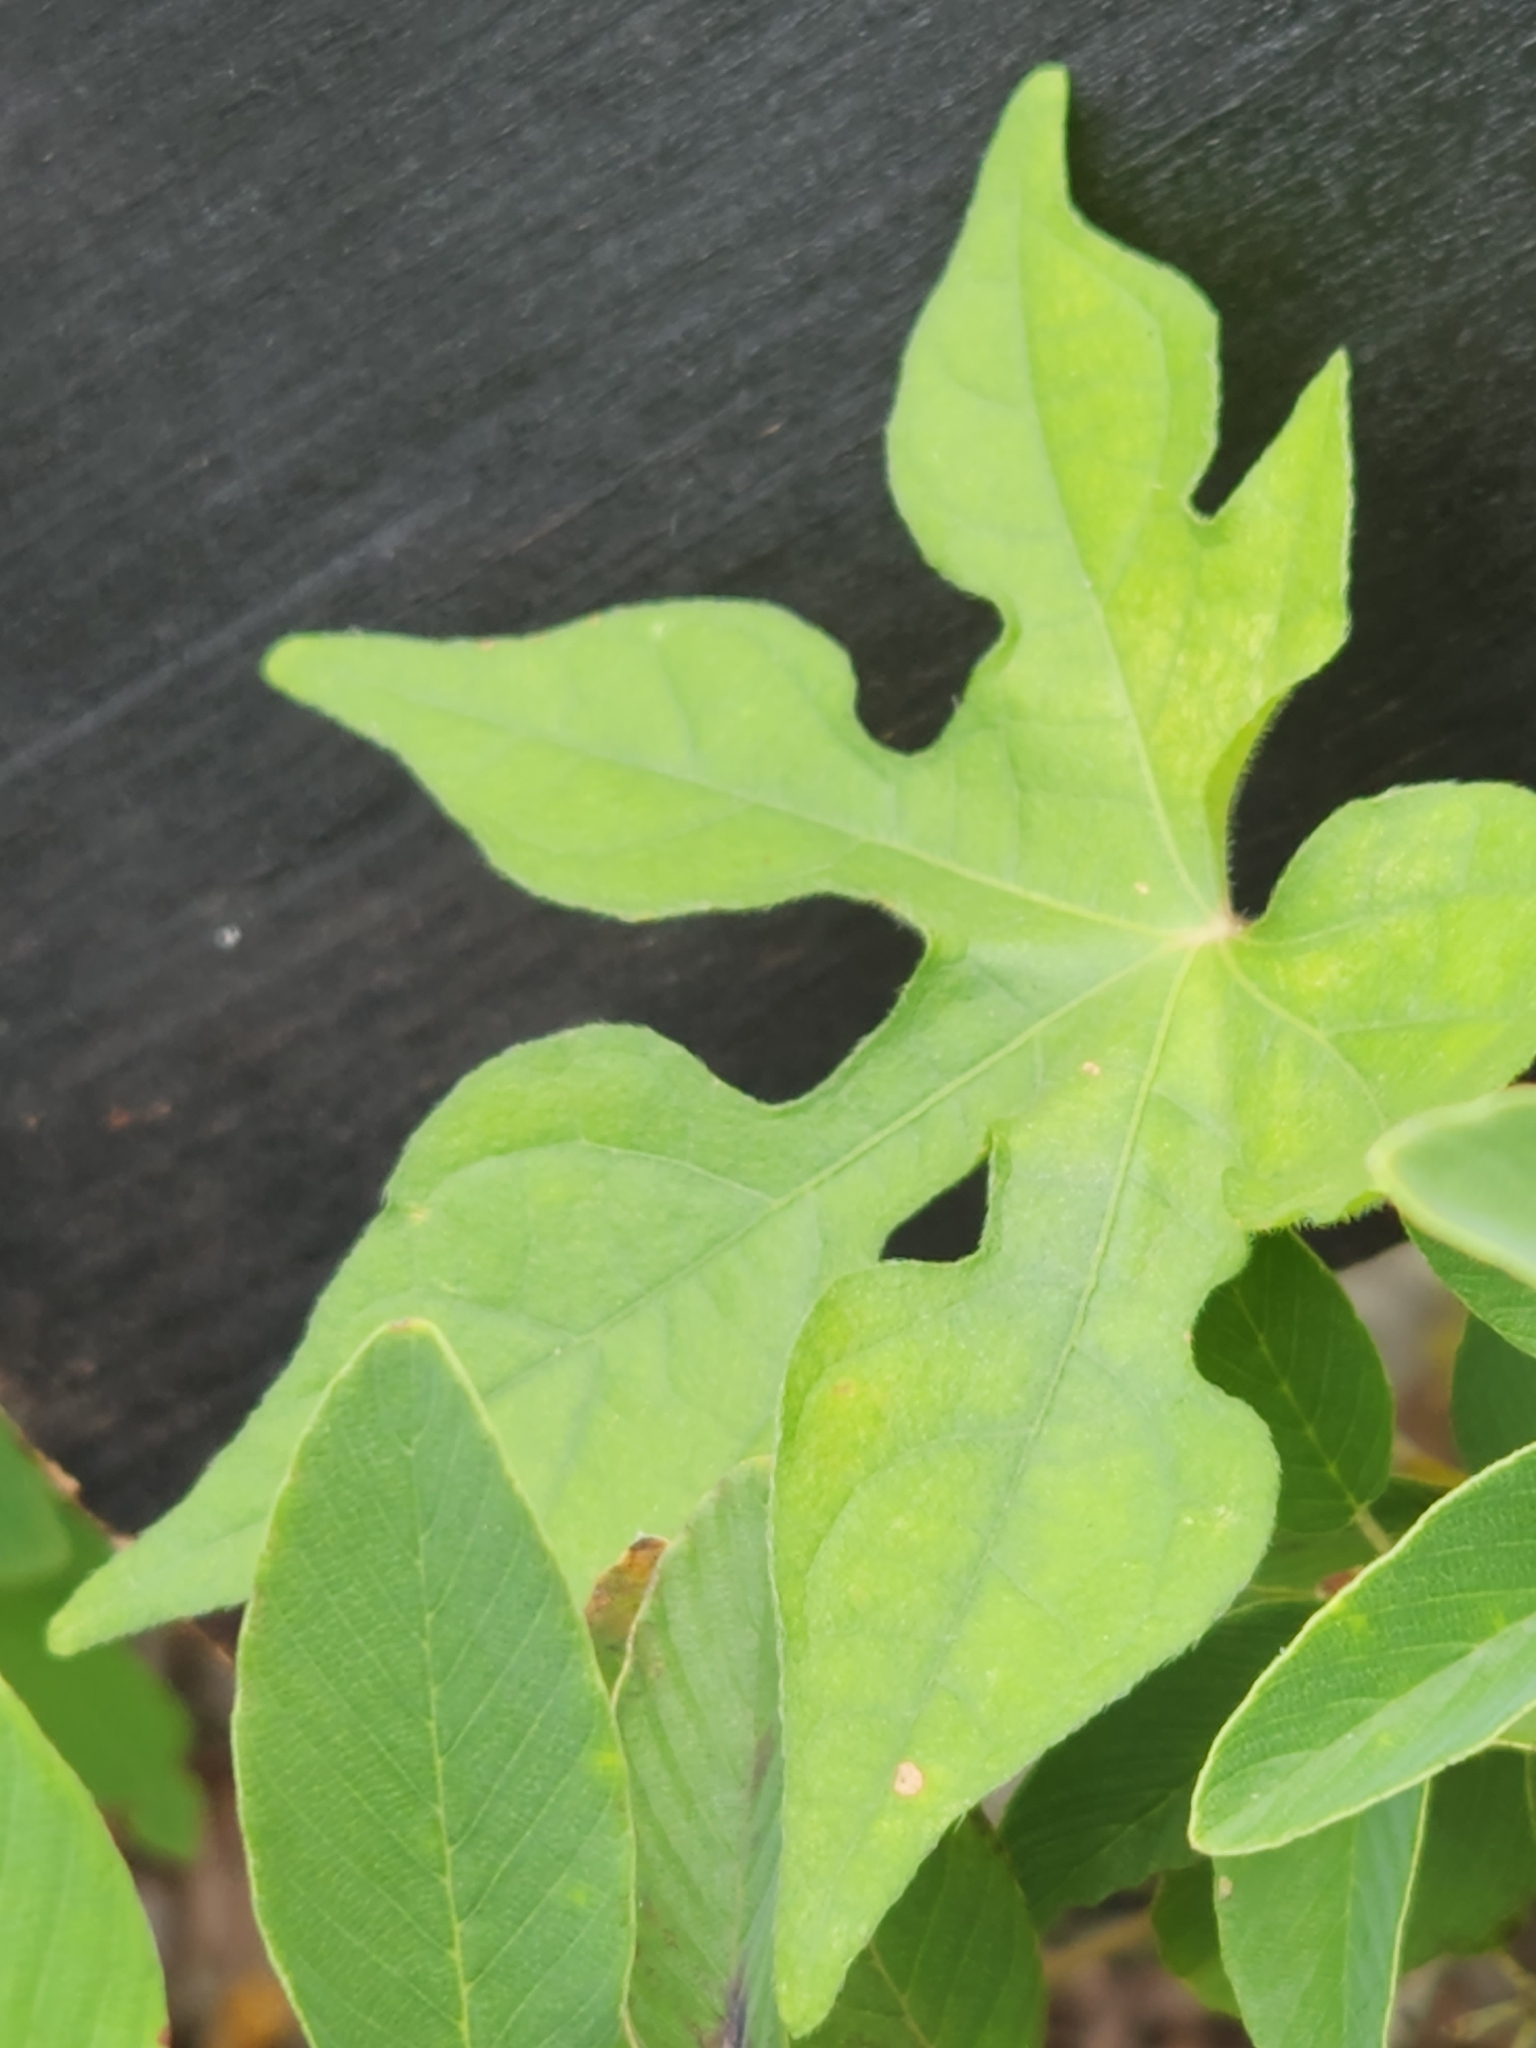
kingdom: Plantae
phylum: Tracheophyta
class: Magnoliopsida
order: Solanales
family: Convolvulaceae
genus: Ipomoea
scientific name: Ipomoea lindheimeri
